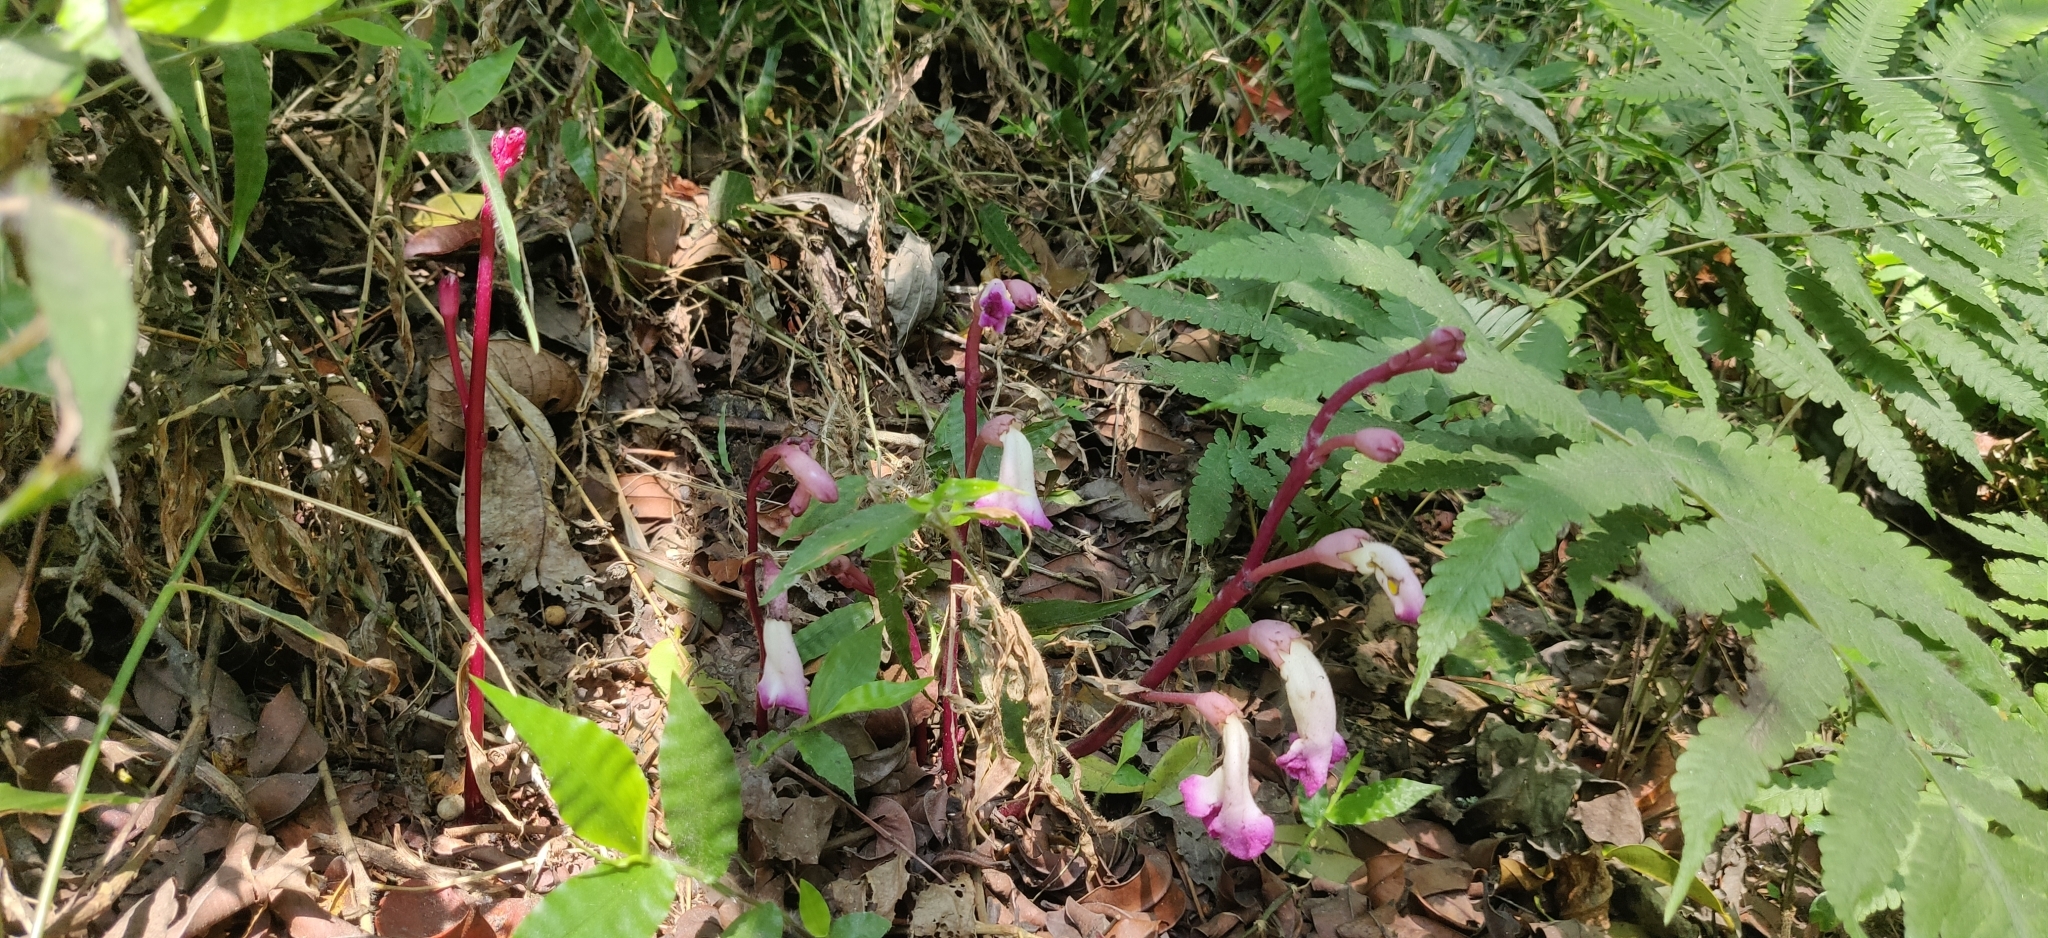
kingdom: Plantae
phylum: Tracheophyta
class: Magnoliopsida
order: Lamiales
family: Orobanchaceae
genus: Christisonia
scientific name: Christisonia tubulosa
